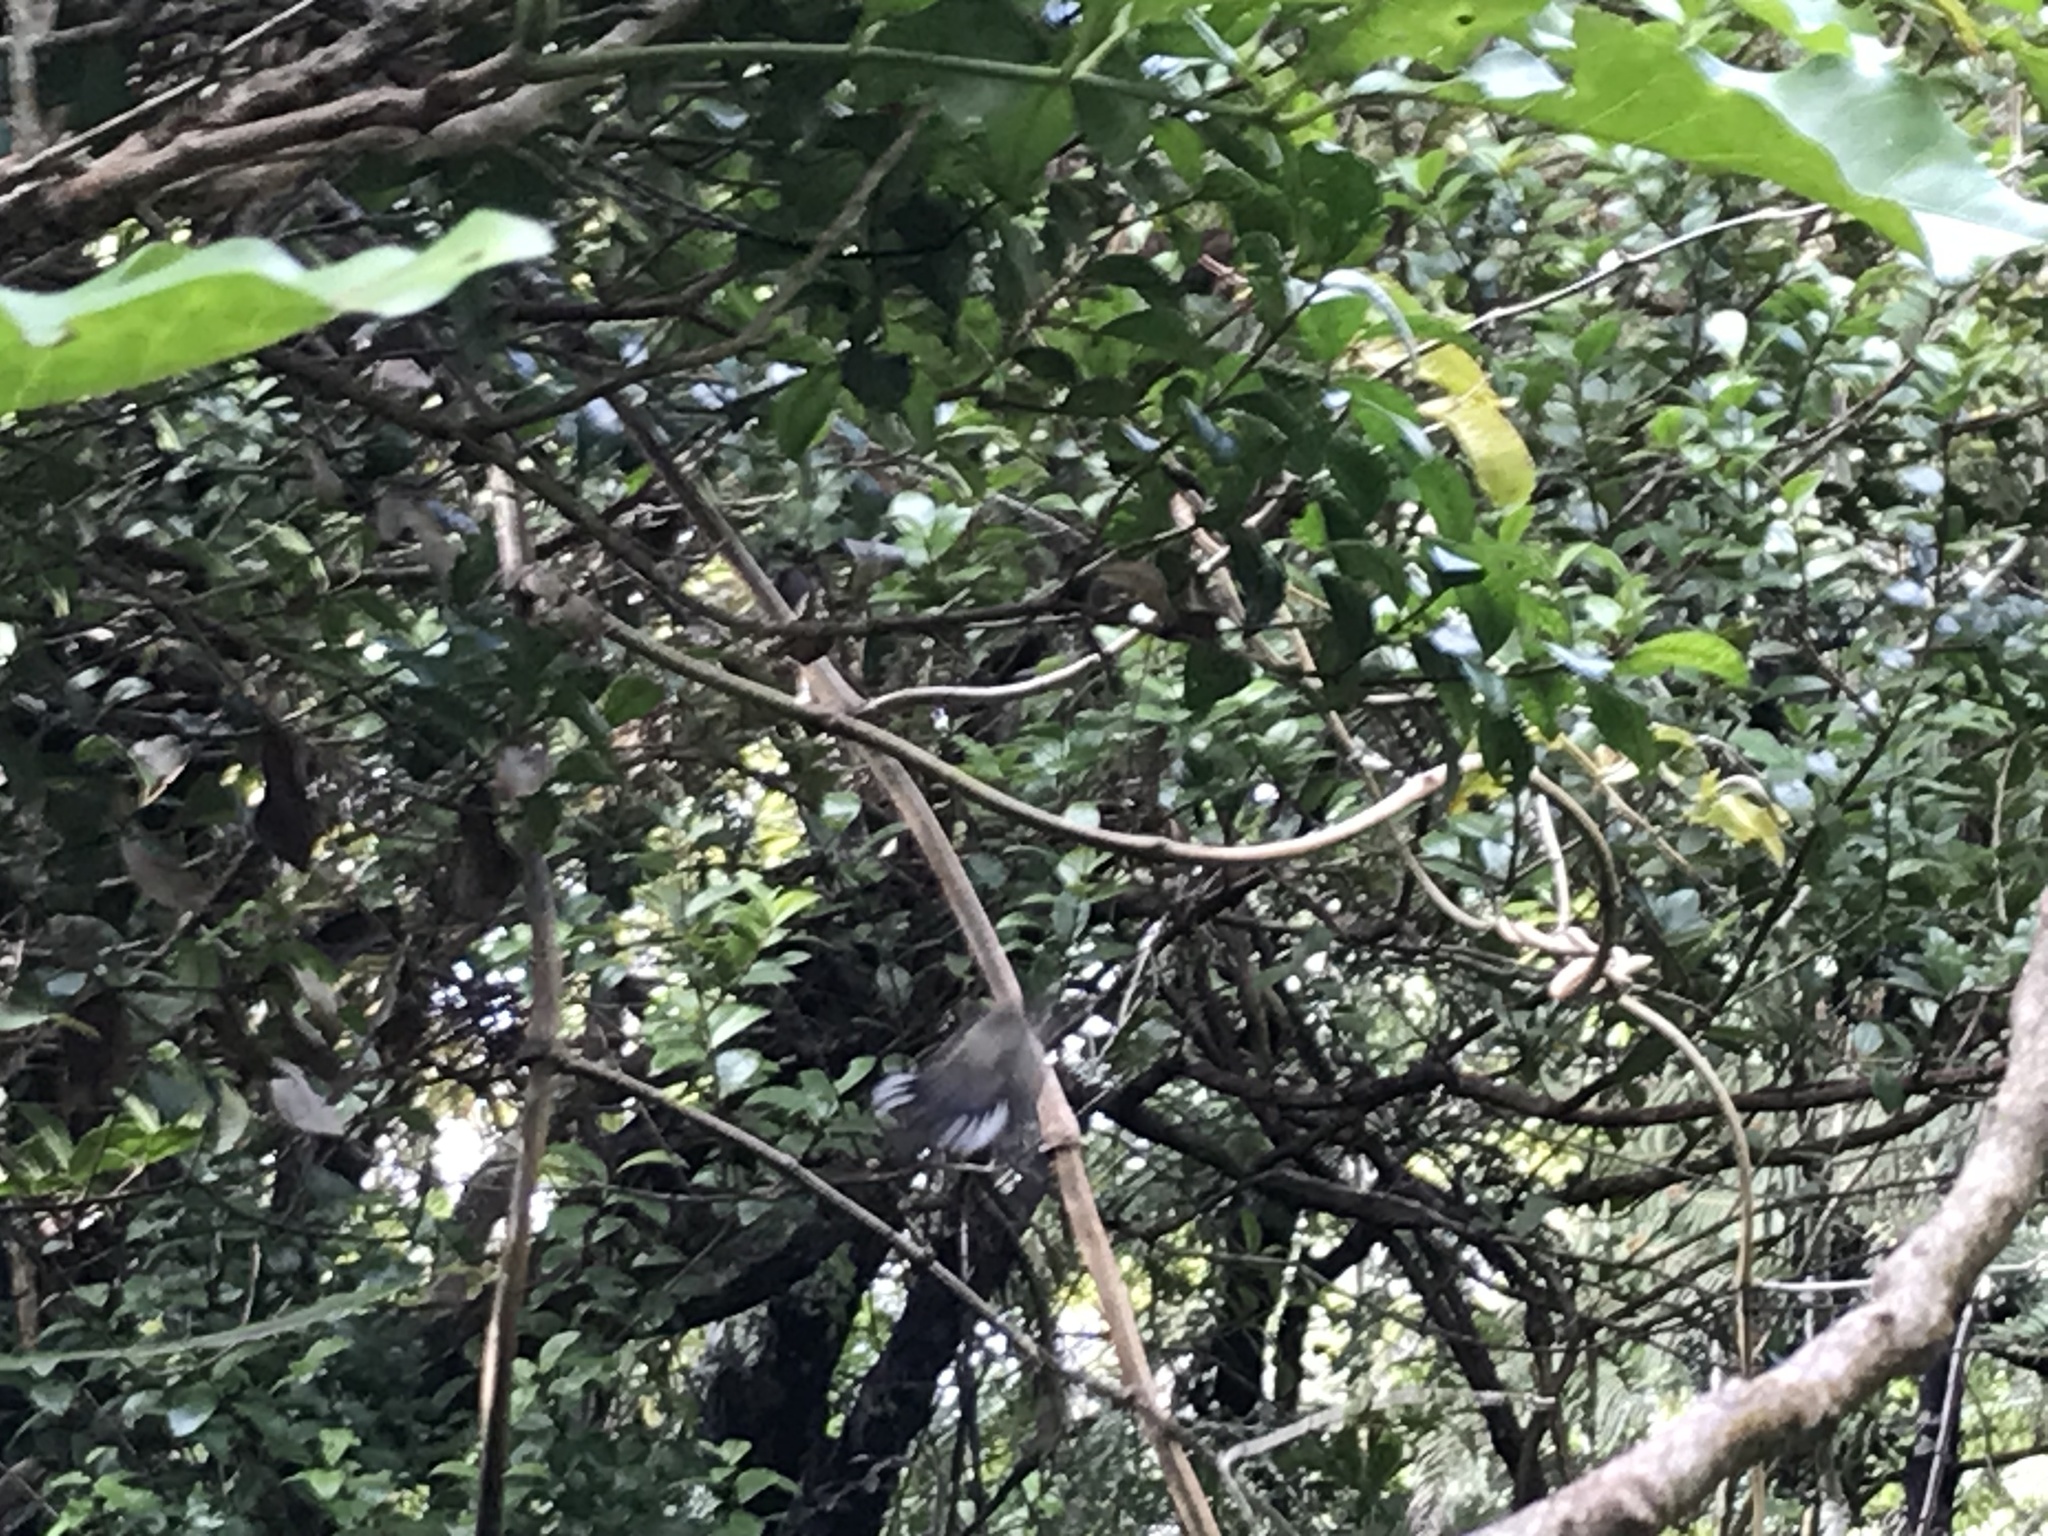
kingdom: Animalia
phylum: Chordata
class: Aves
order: Passeriformes
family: Acanthizidae
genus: Gerygone
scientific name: Gerygone igata
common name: Grey gerygone
